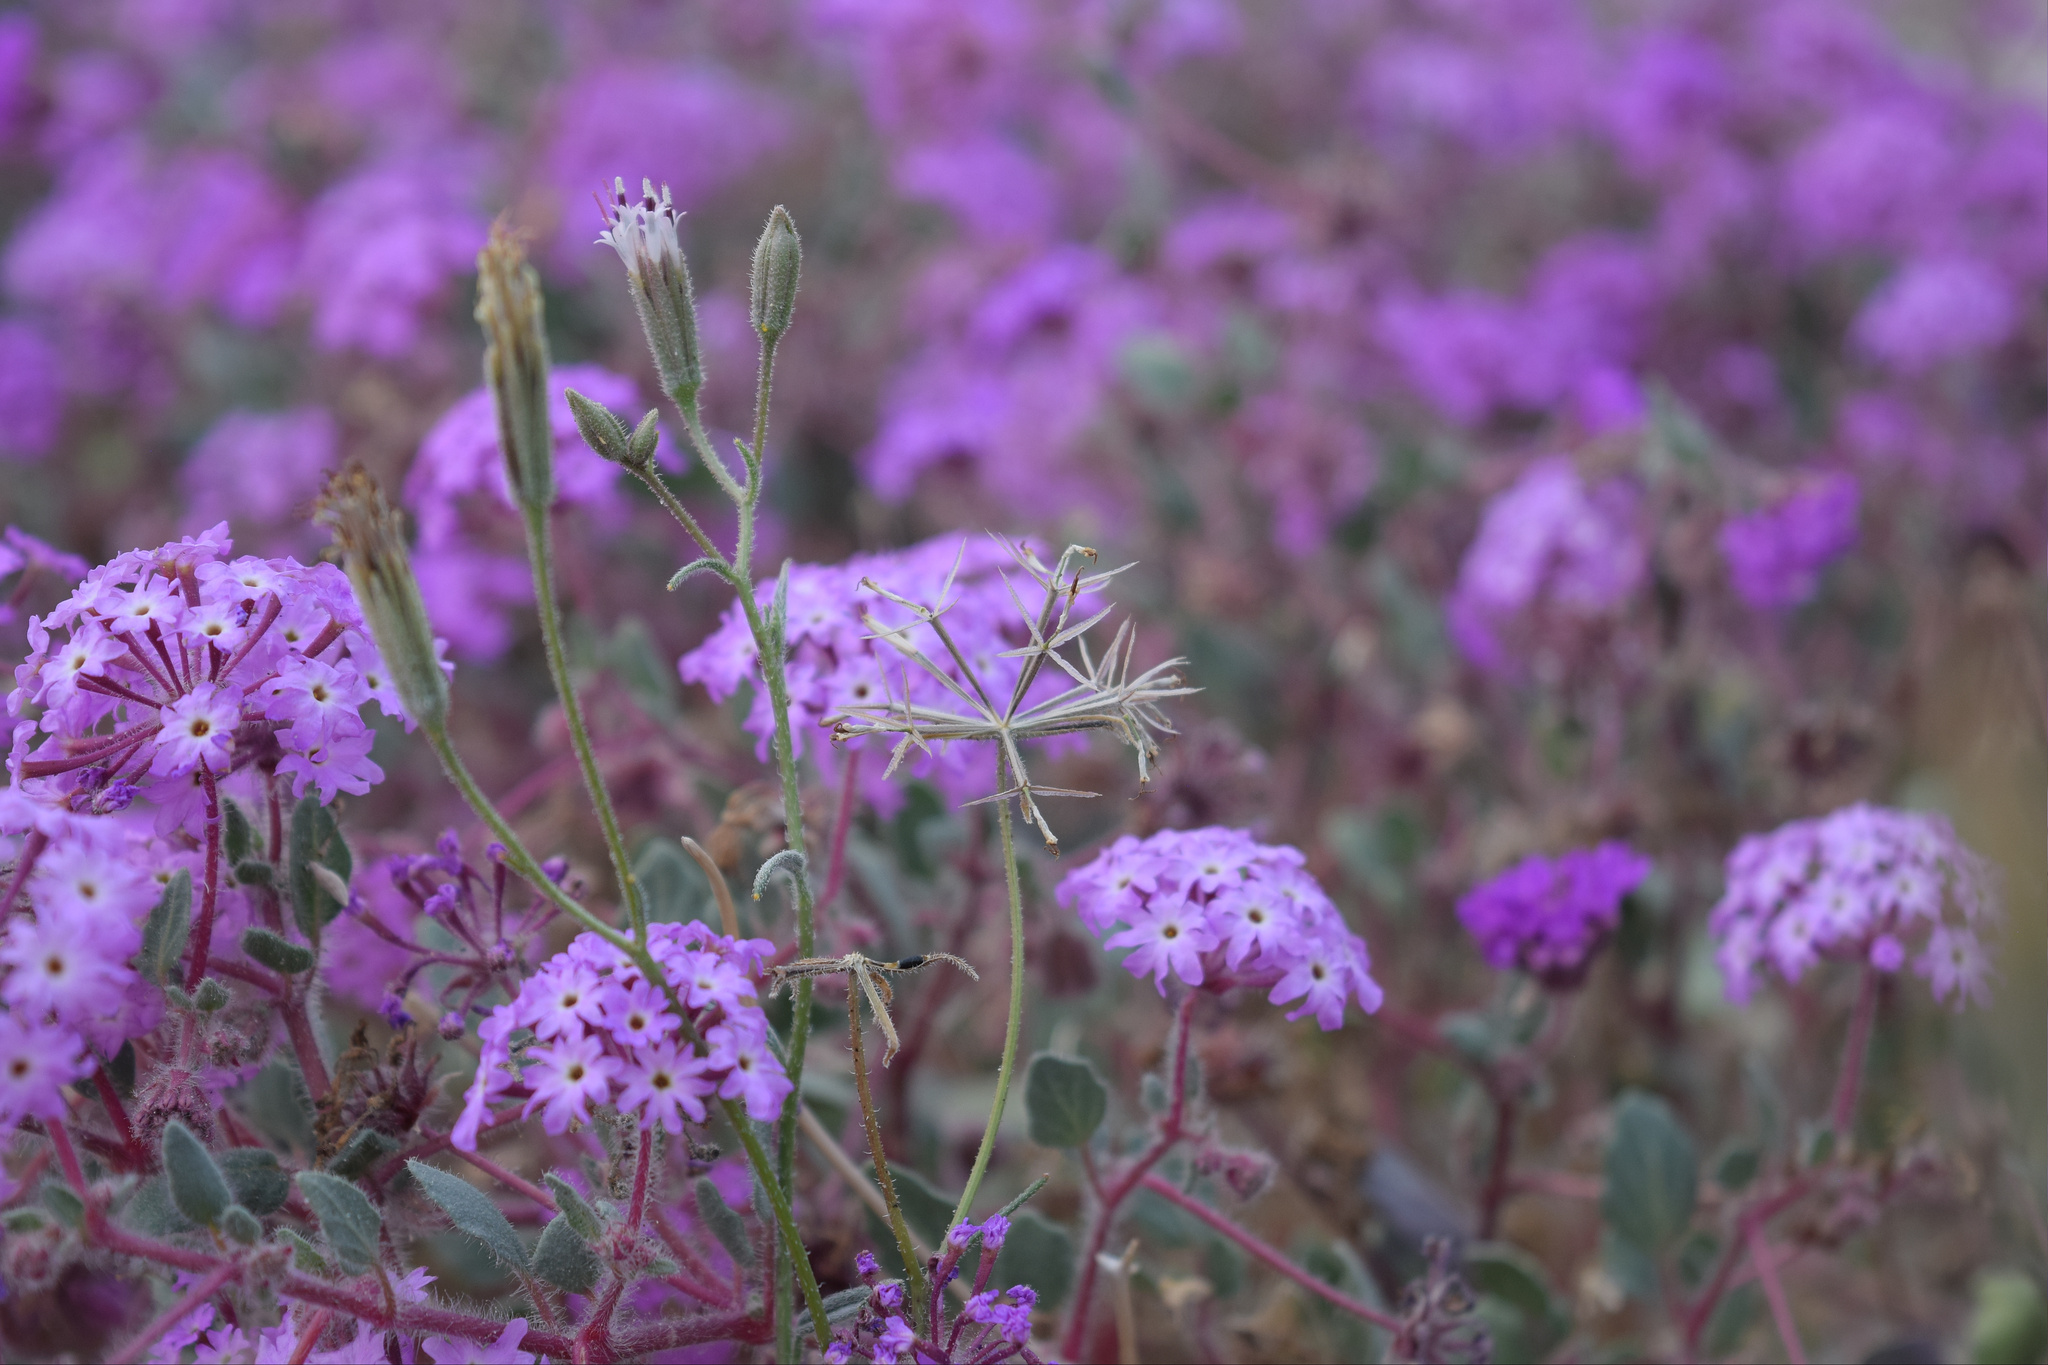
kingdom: Plantae
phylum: Tracheophyta
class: Magnoliopsida
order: Asterales
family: Asteraceae
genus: Palafoxia
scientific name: Palafoxia arida
